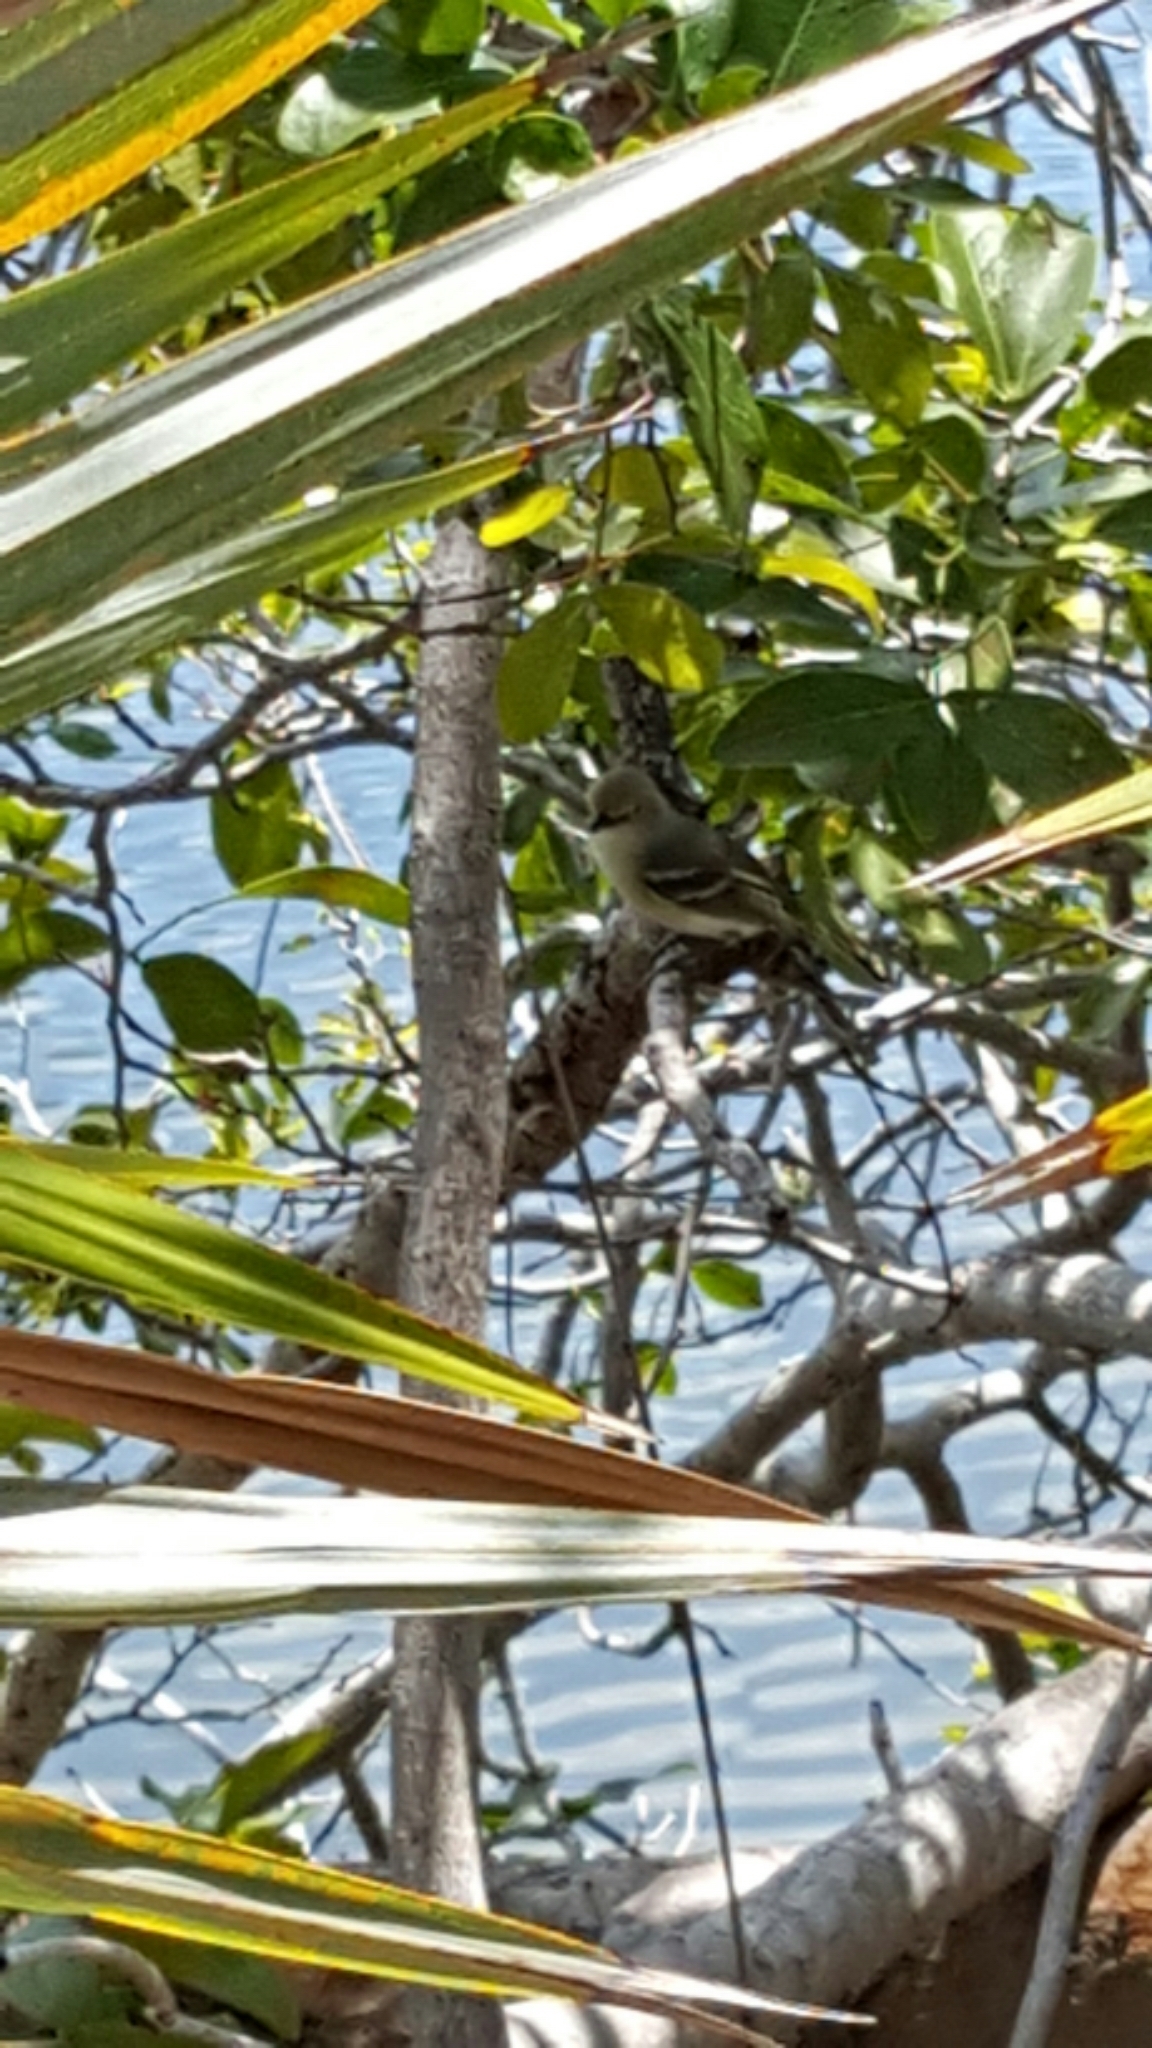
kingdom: Animalia
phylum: Chordata
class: Aves
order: Passeriformes
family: Vireonidae
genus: Vireo
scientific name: Vireo griseus
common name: White-eyed vireo
